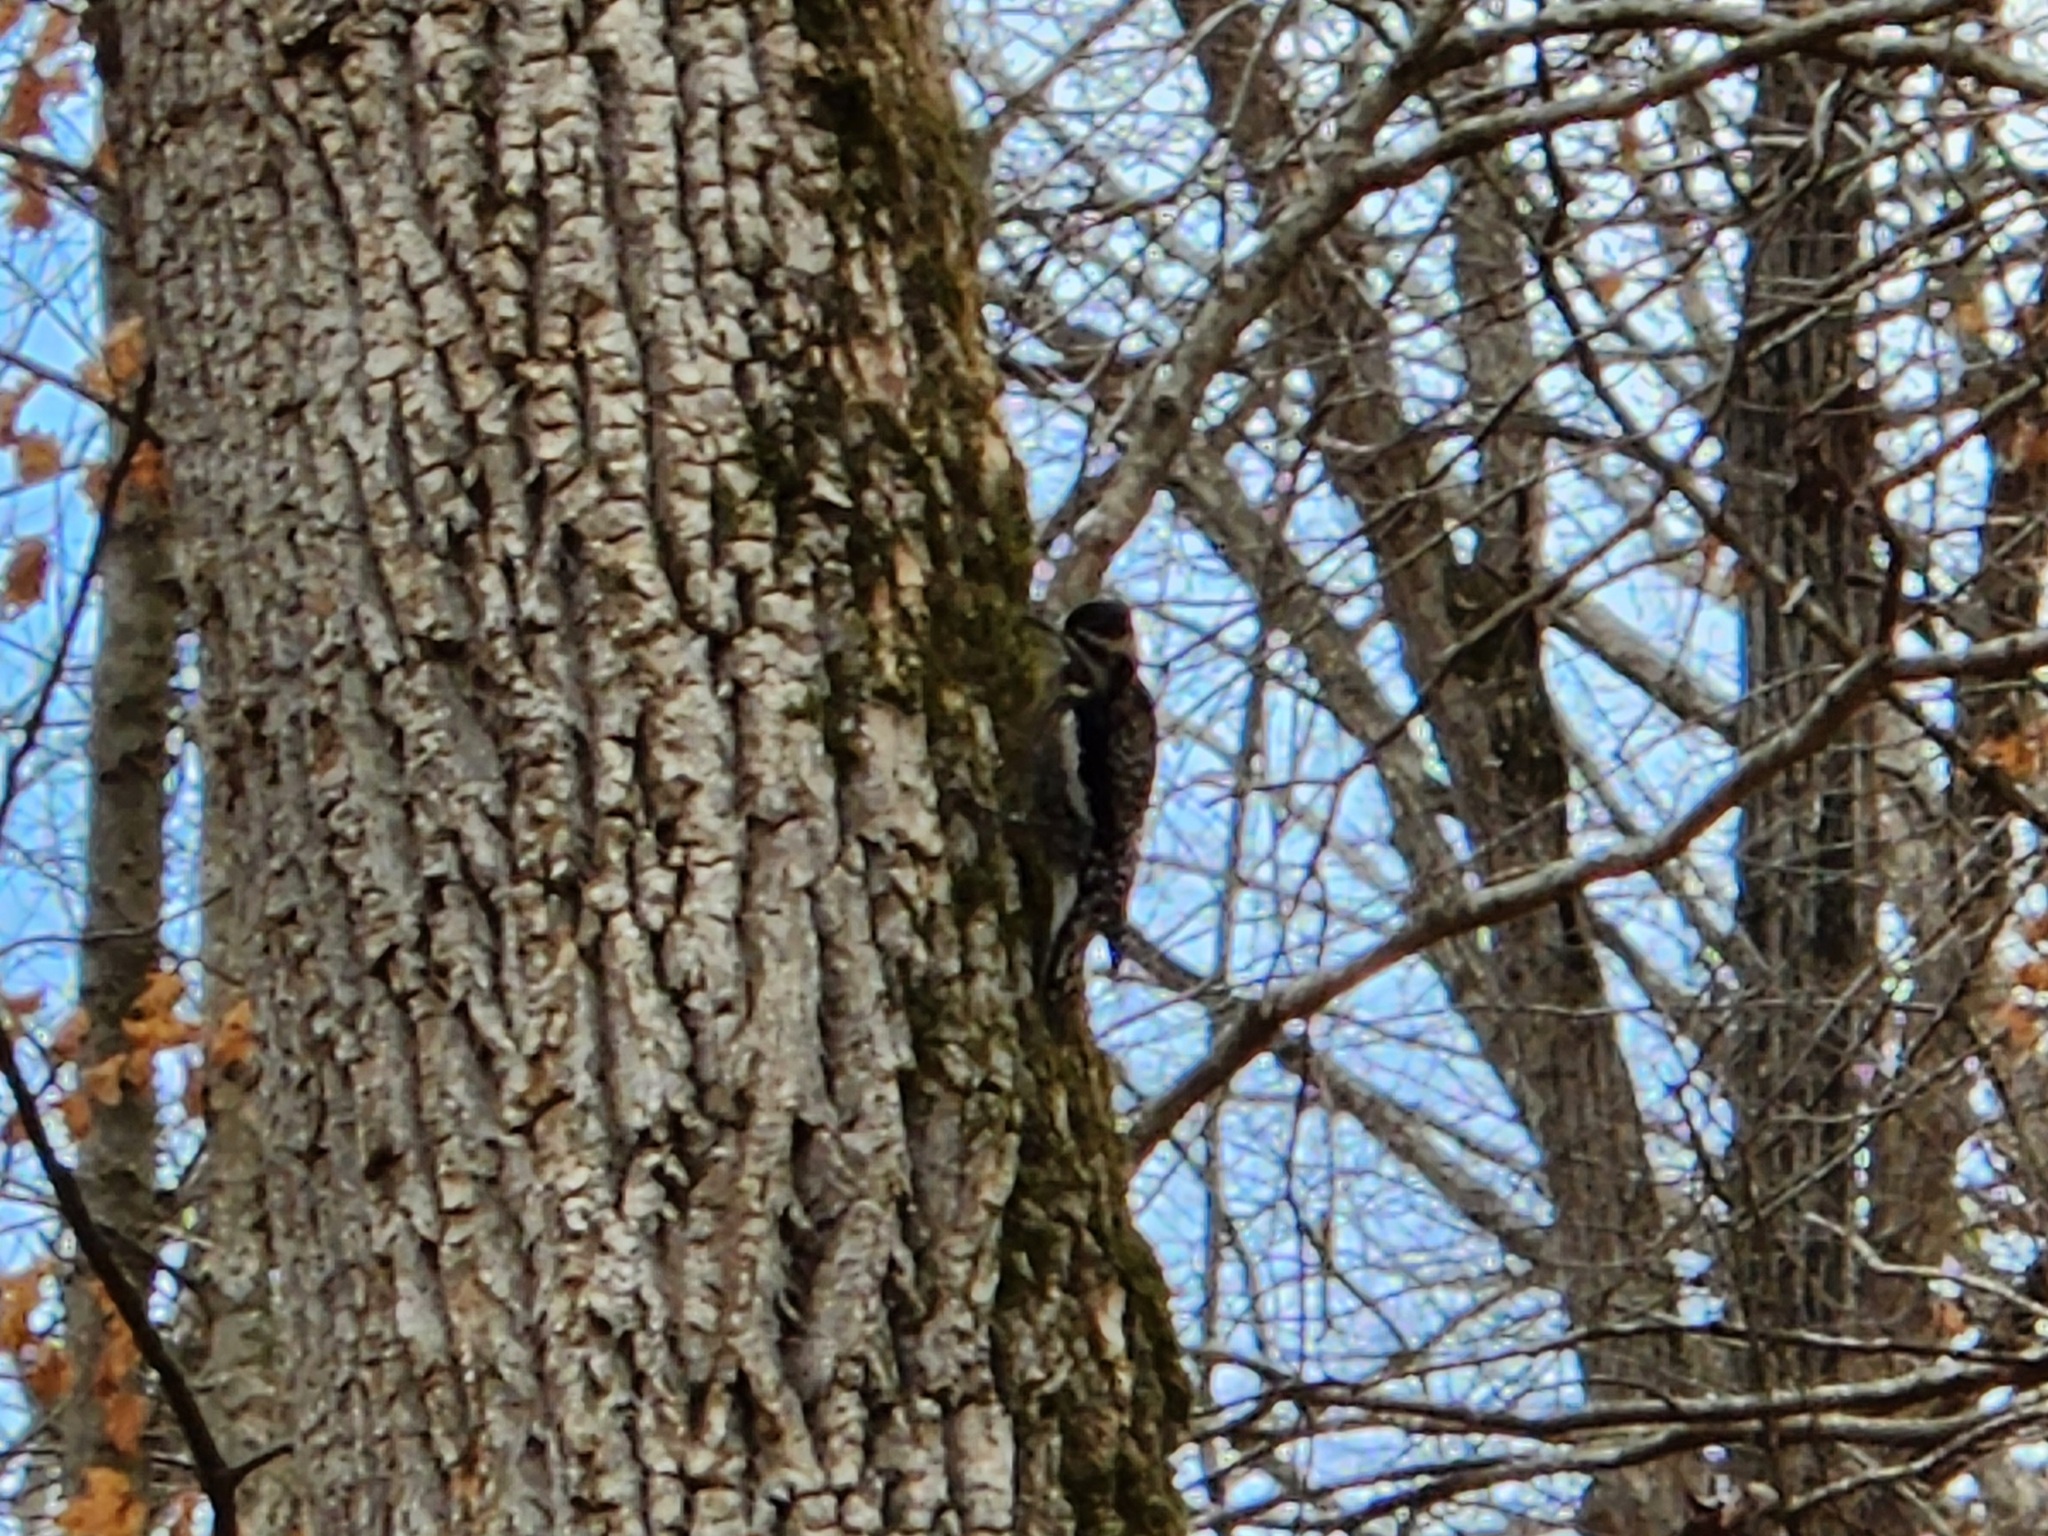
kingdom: Animalia
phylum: Chordata
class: Aves
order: Piciformes
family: Picidae
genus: Sphyrapicus
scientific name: Sphyrapicus varius
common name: Yellow-bellied sapsucker
